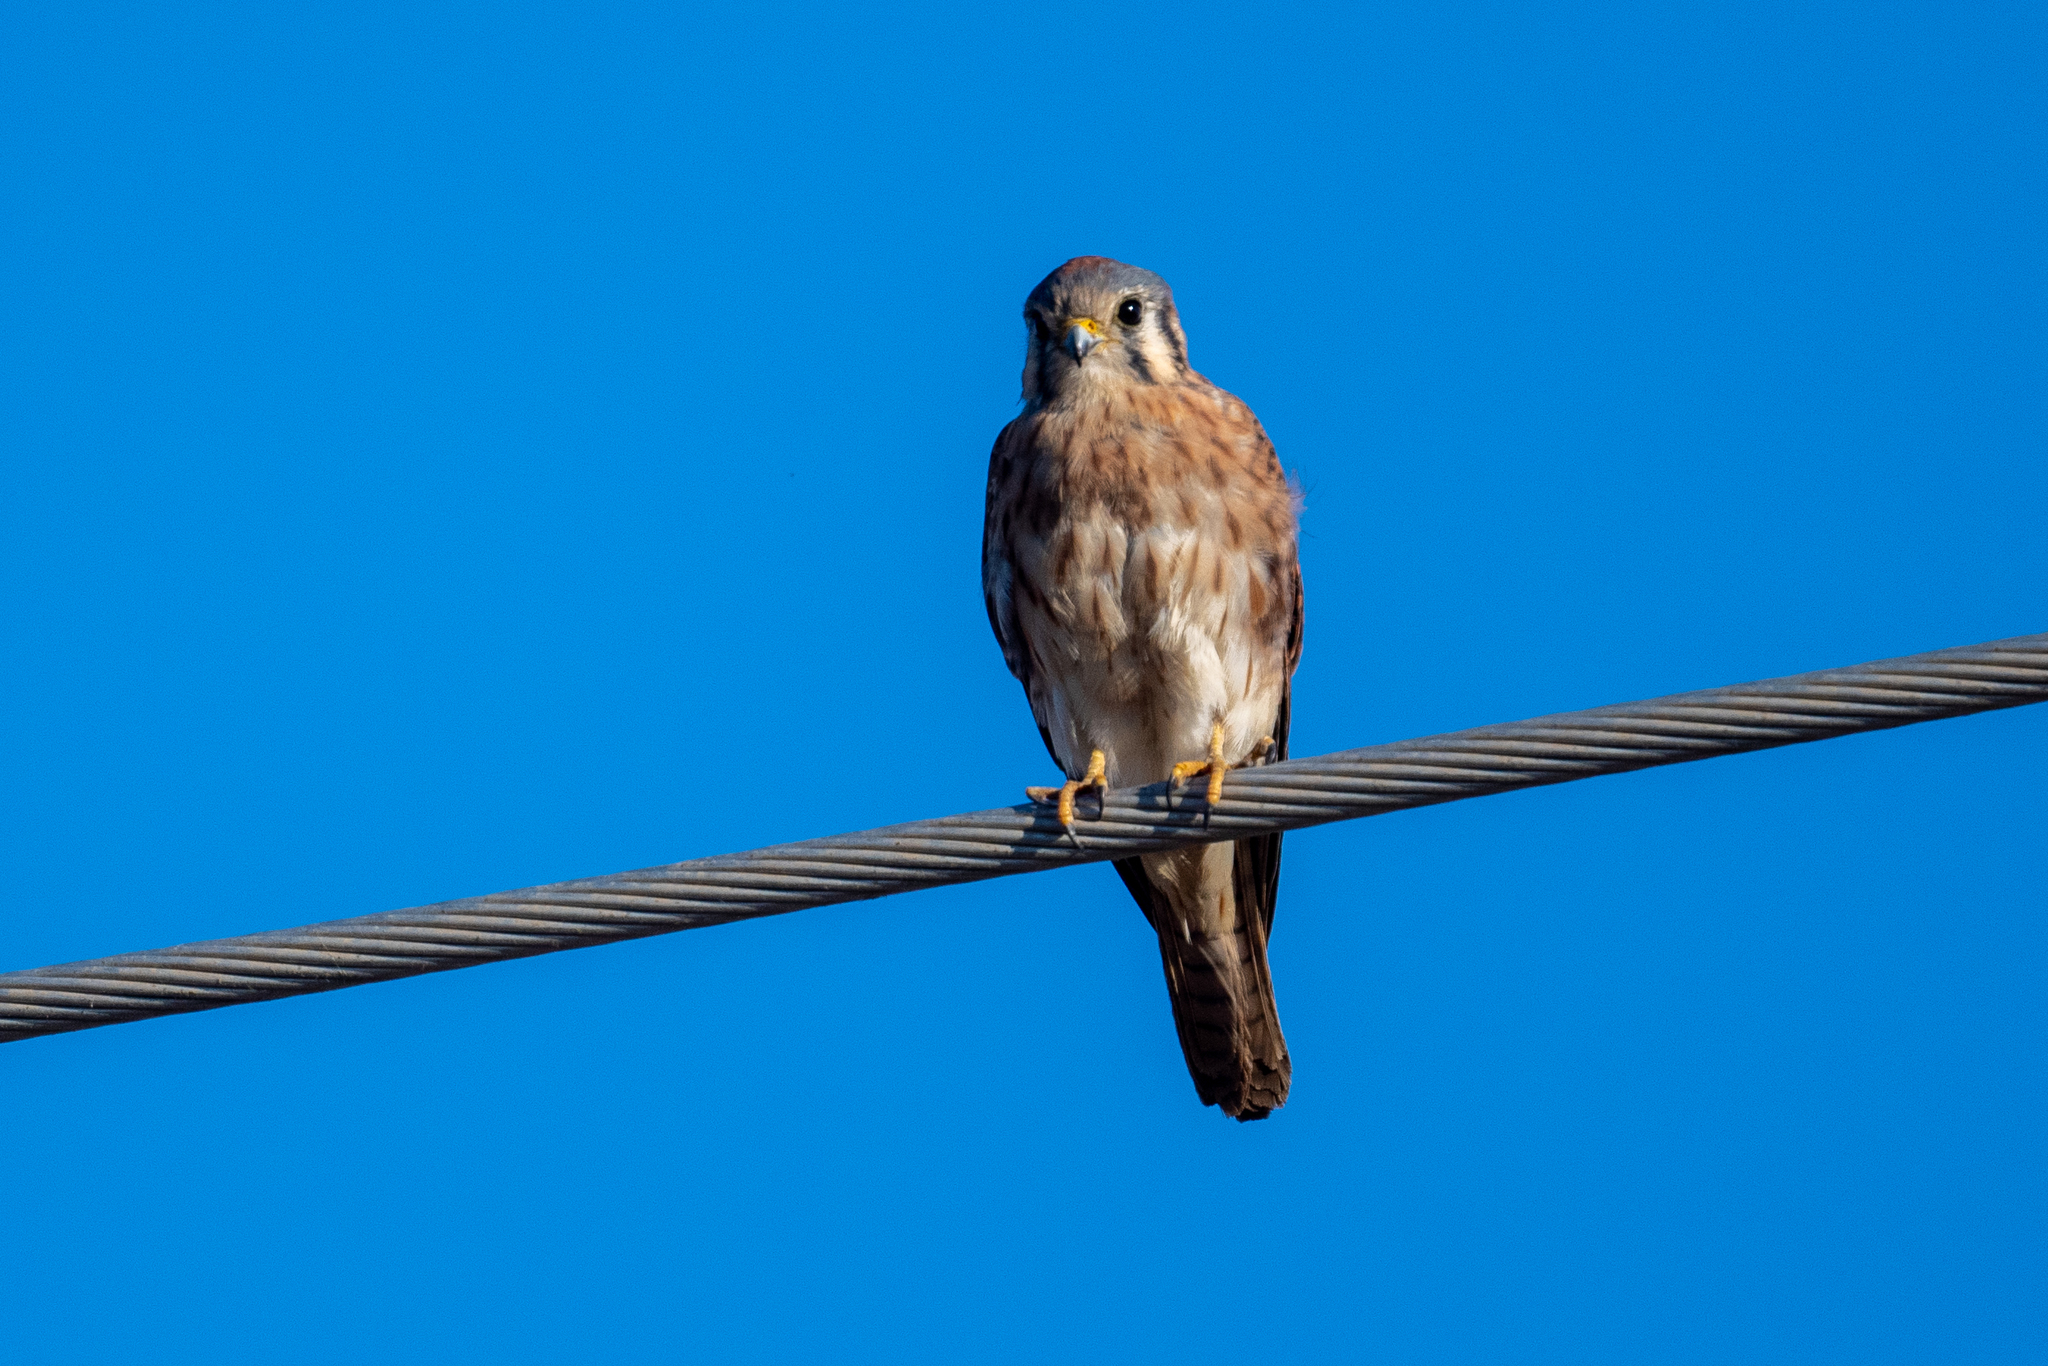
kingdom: Animalia
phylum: Chordata
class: Aves
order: Falconiformes
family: Falconidae
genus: Falco
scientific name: Falco sparverius
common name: American kestrel
